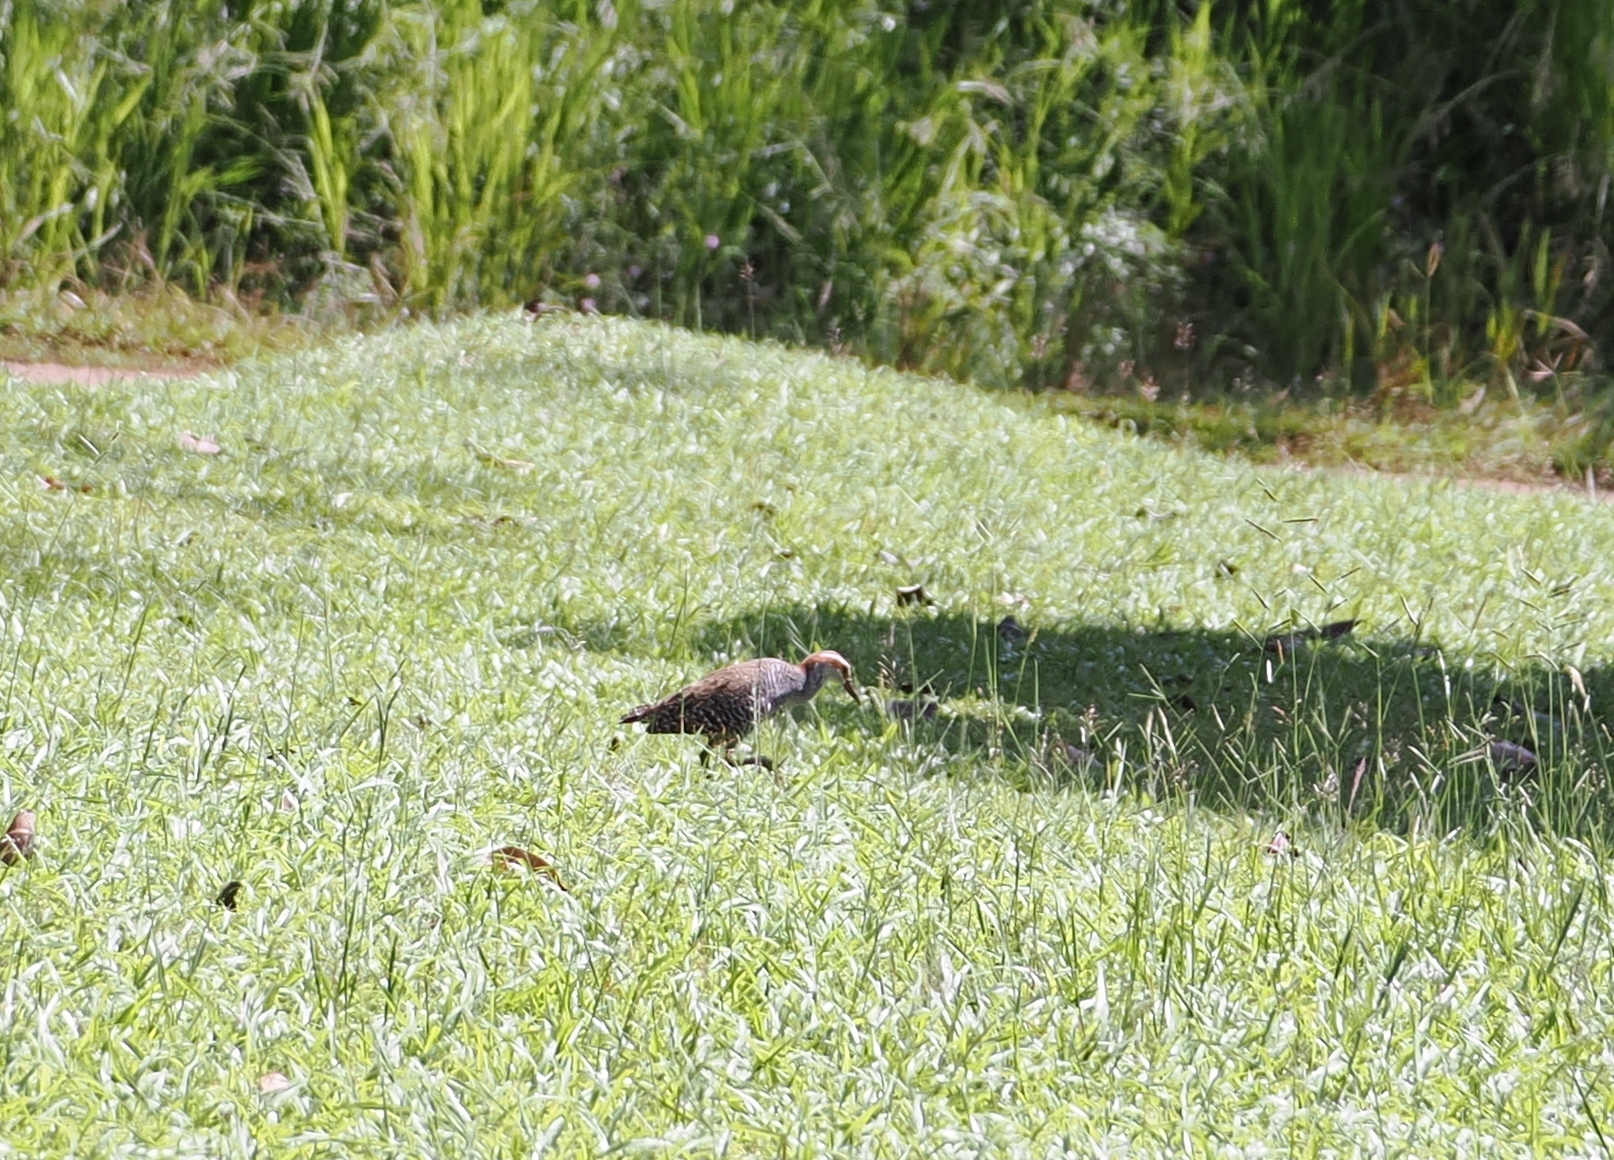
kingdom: Animalia
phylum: Chordata
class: Aves
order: Gruiformes
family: Rallidae
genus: Gallirallus
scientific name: Gallirallus philippensis
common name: Buff-banded rail
